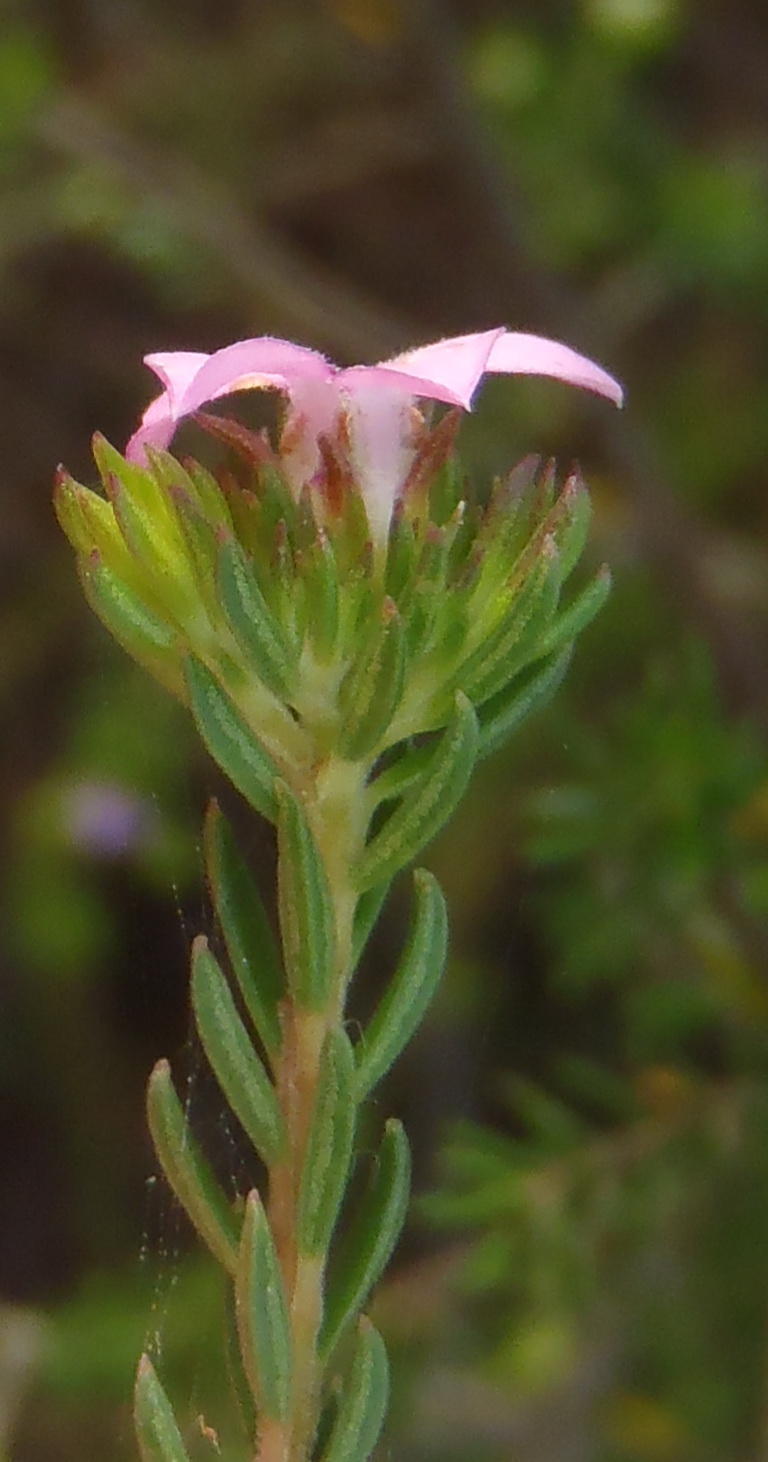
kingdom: Plantae
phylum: Tracheophyta
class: Magnoliopsida
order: Sapindales
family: Rutaceae
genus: Acmadenia
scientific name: Acmadenia alternifolia
